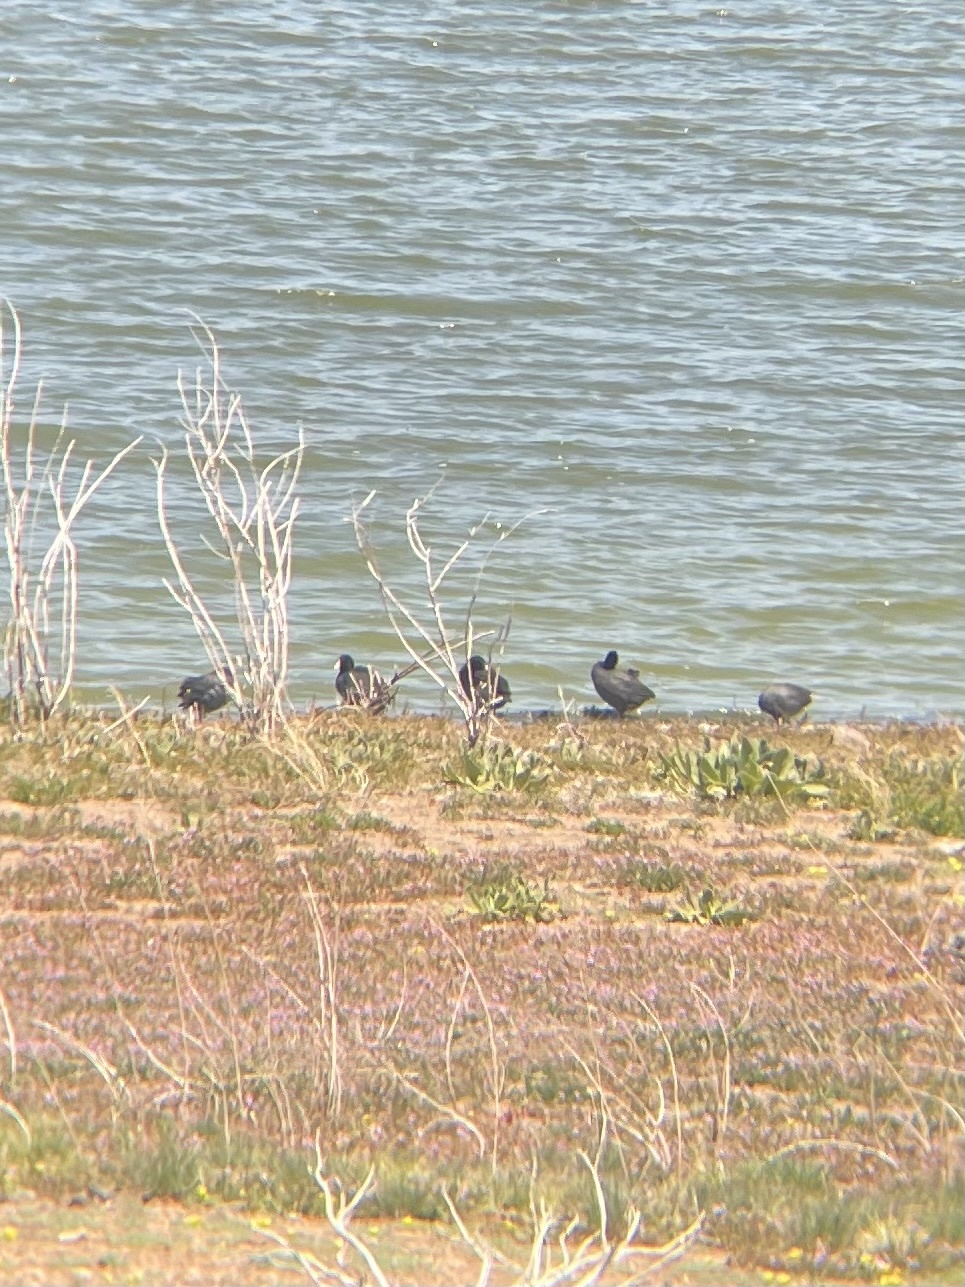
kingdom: Animalia
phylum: Chordata
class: Aves
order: Gruiformes
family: Rallidae
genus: Fulica
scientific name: Fulica americana
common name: American coot
